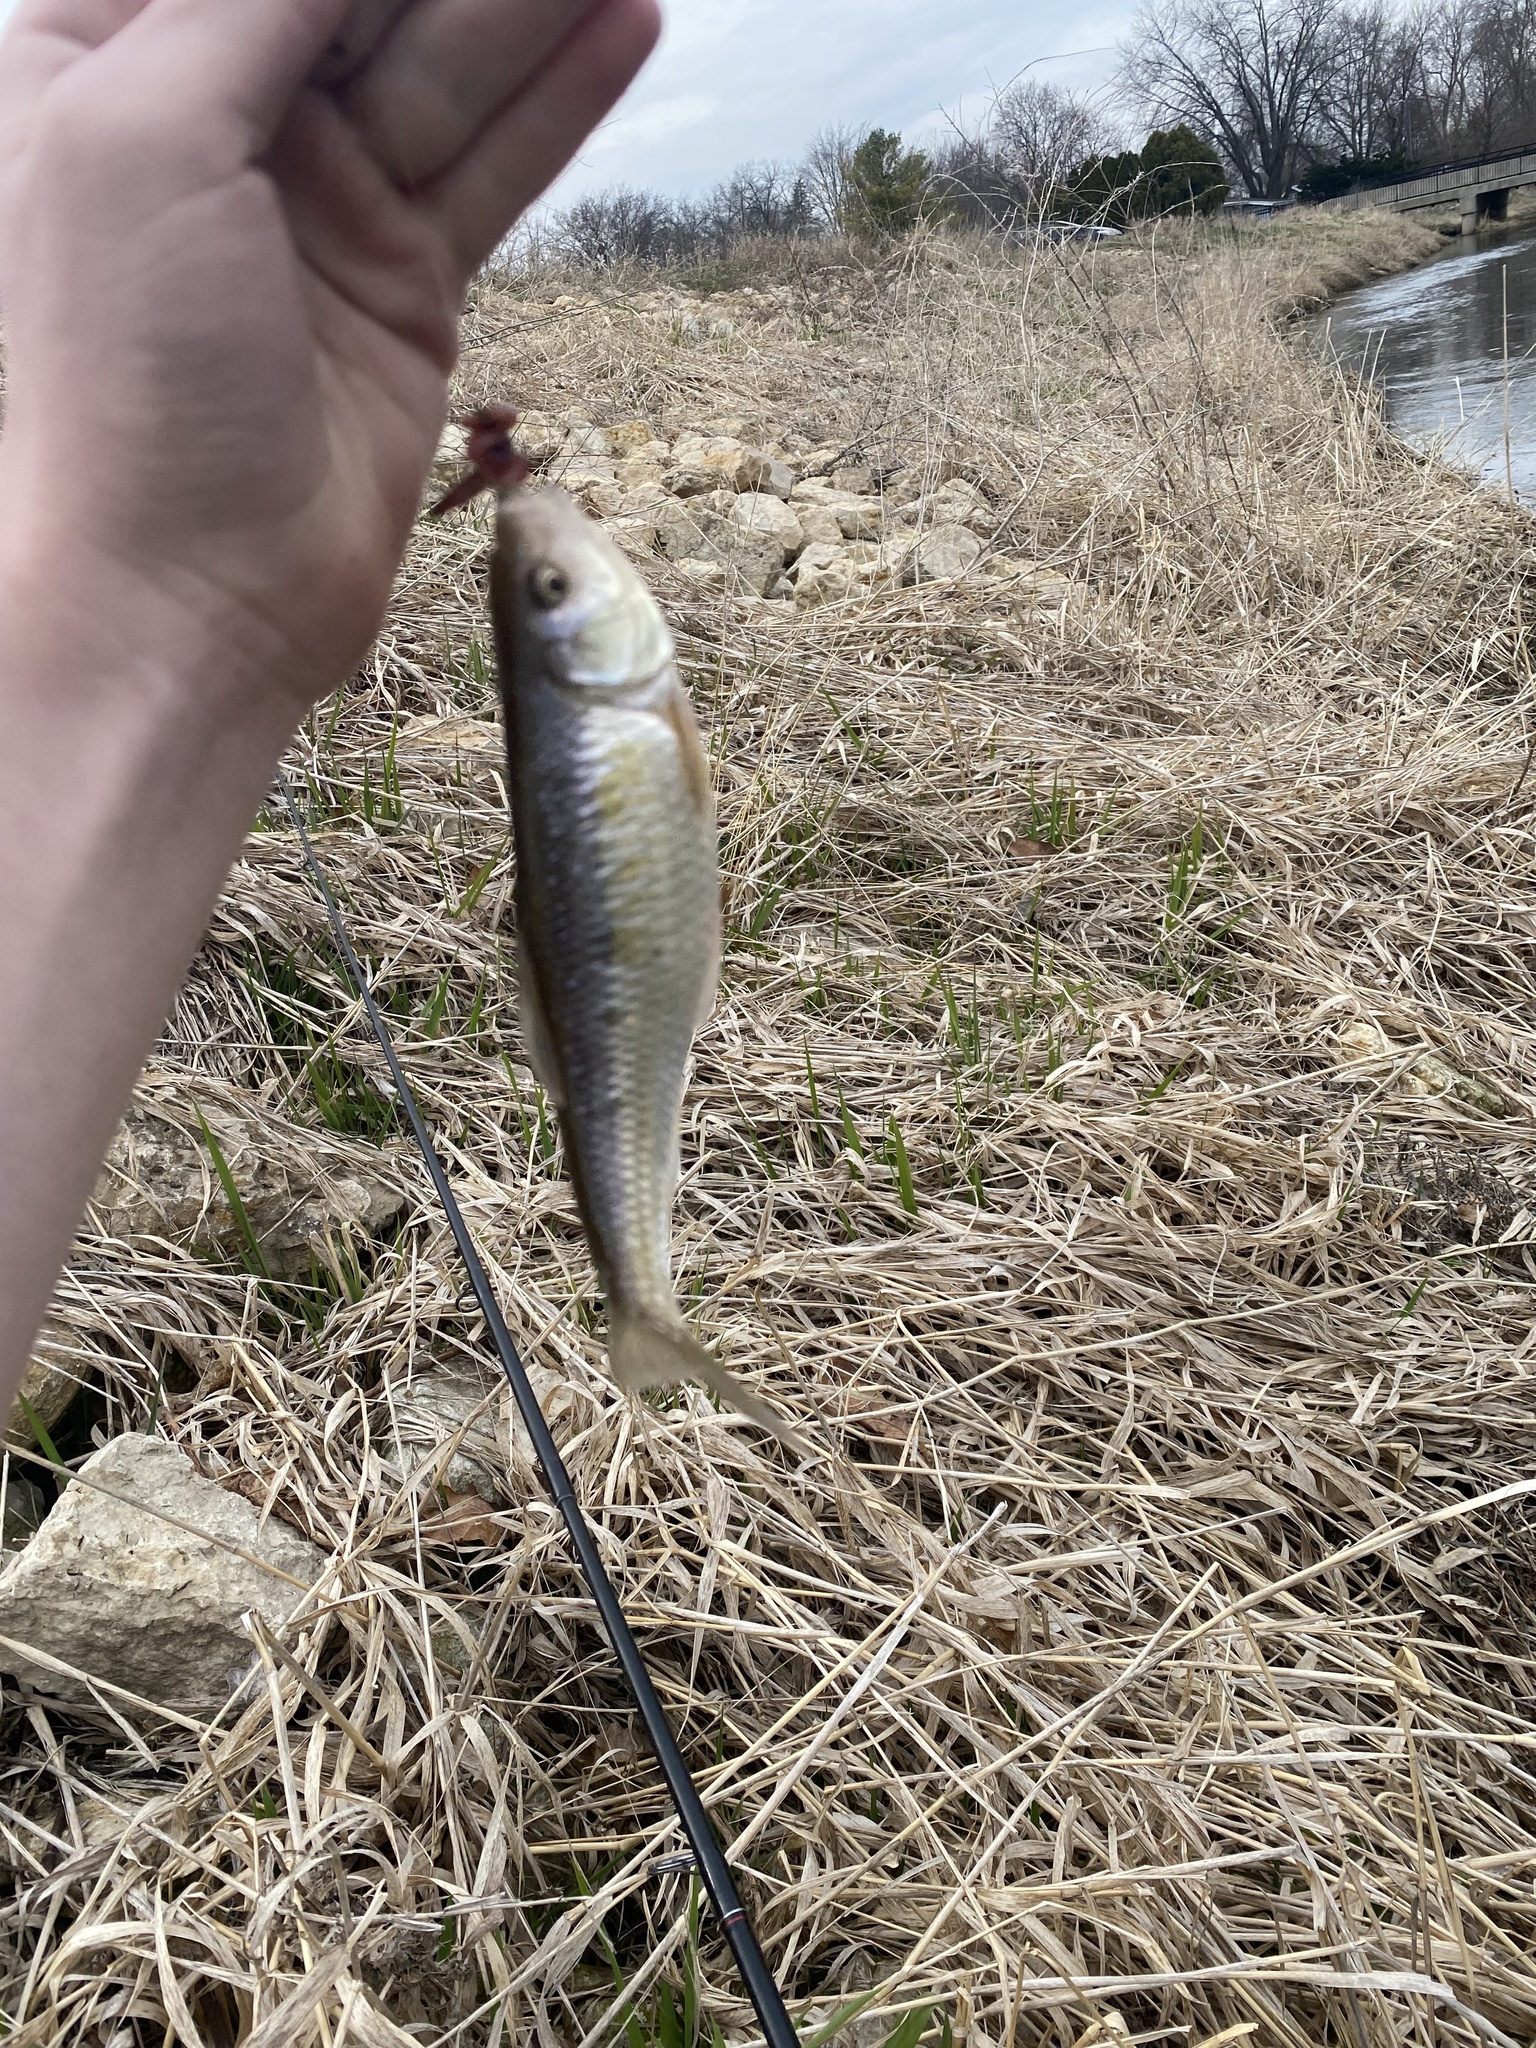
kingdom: Animalia
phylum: Chordata
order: Cypriniformes
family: Cyprinidae
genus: Luxilus
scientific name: Luxilus cornutus
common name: Common shiner
